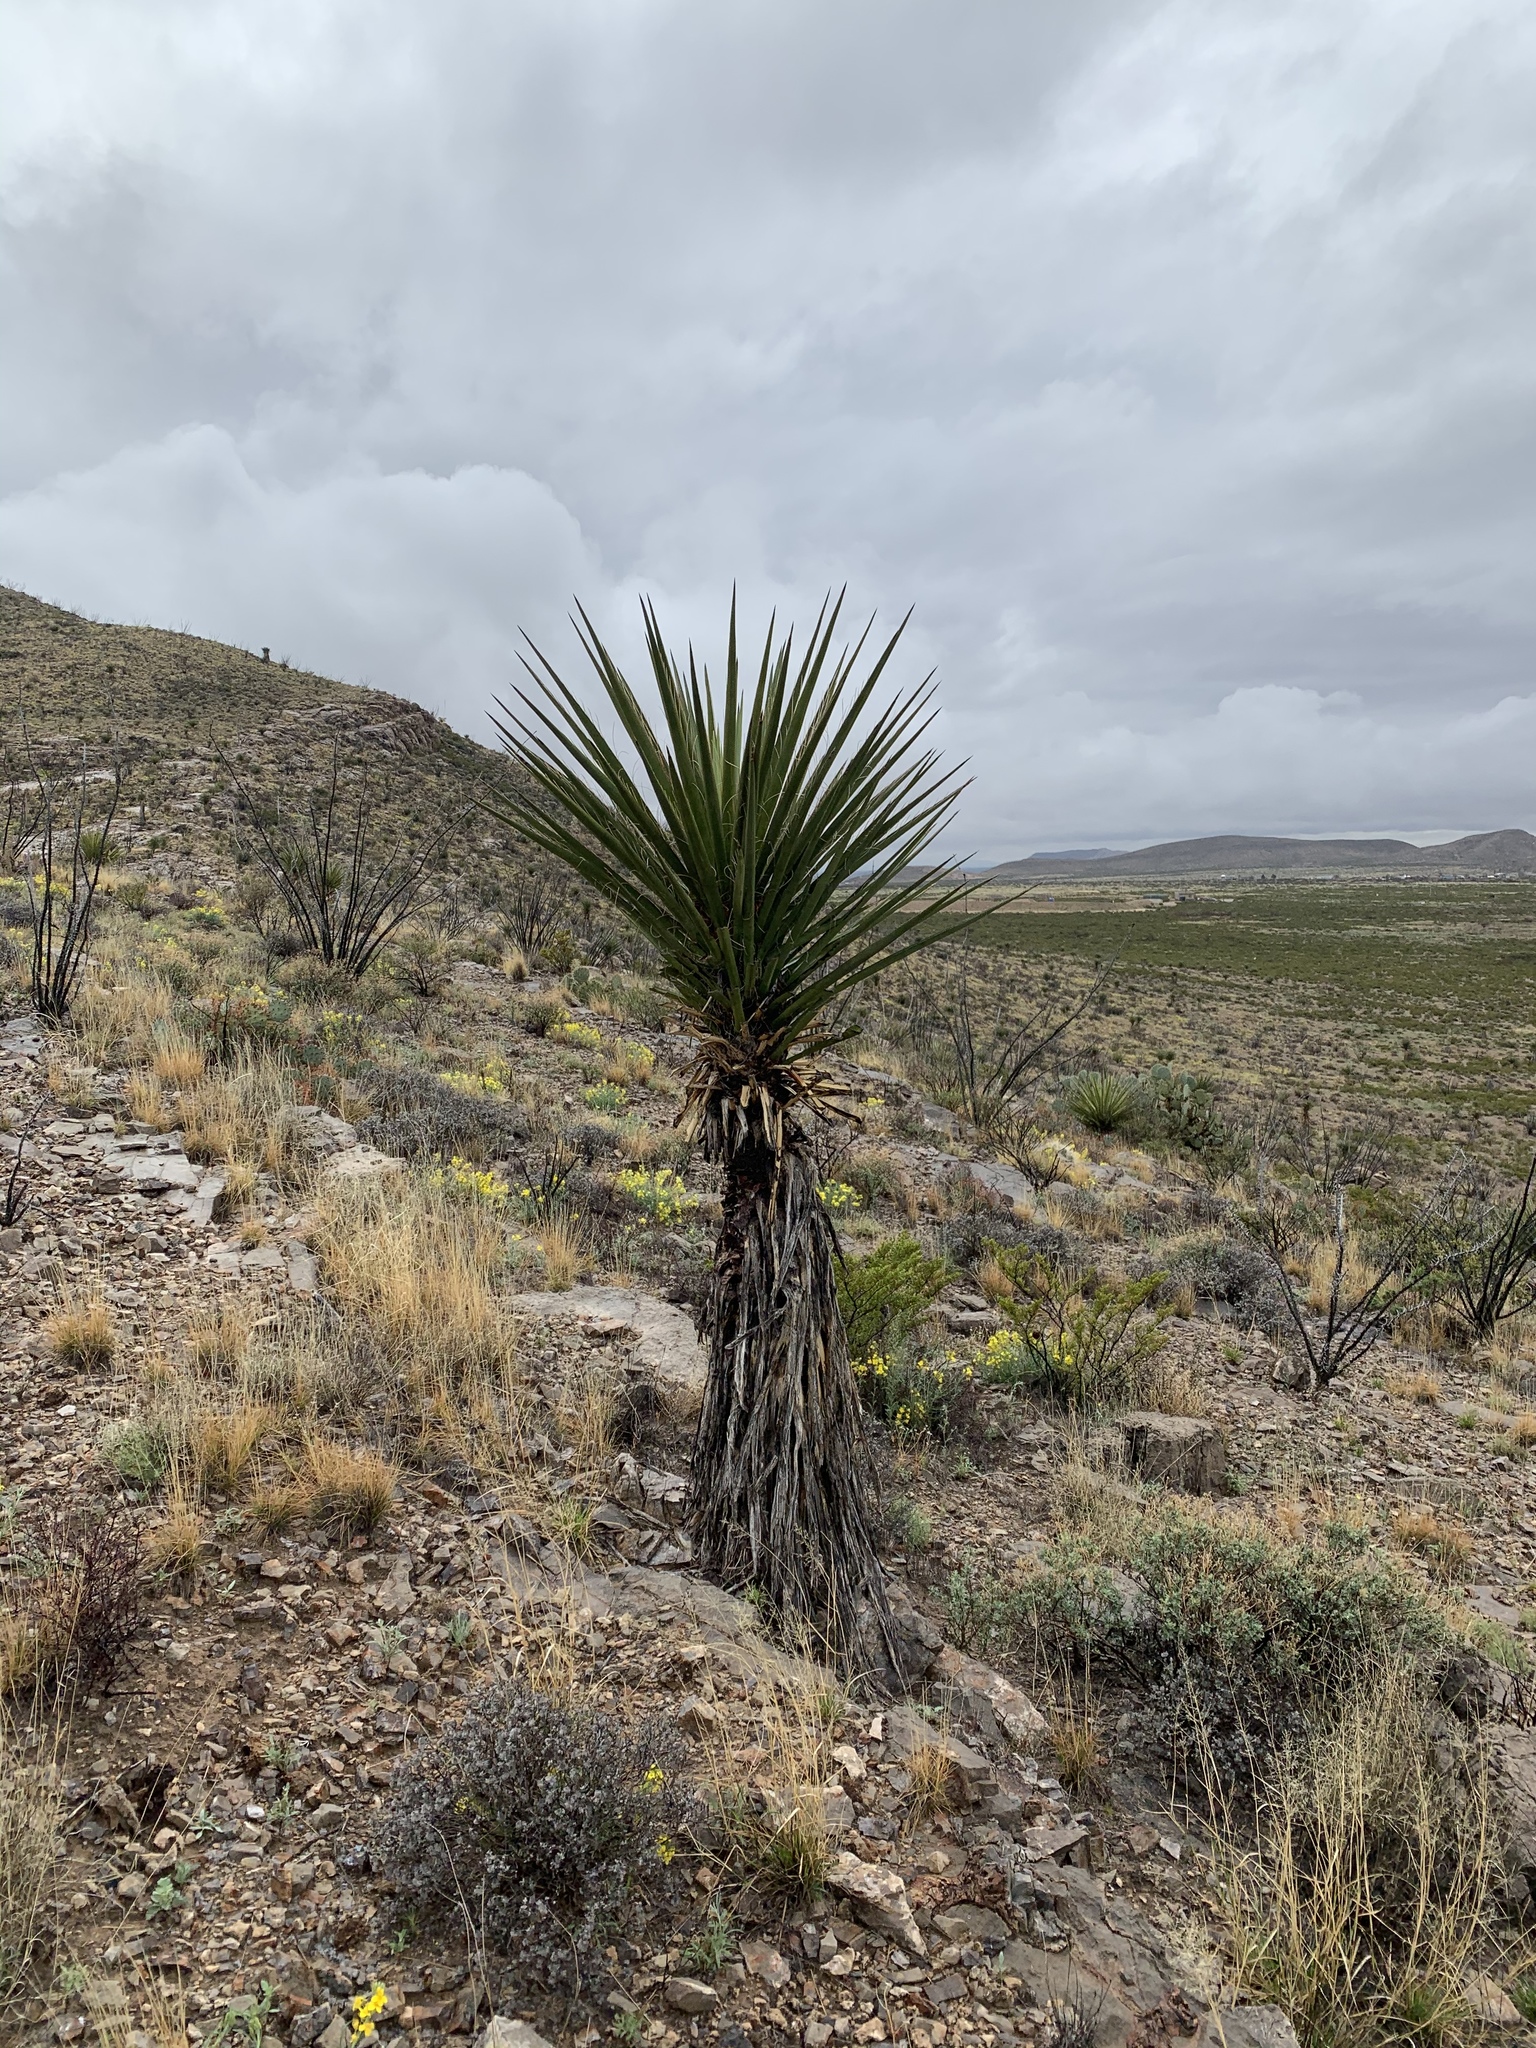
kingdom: Plantae
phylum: Tracheophyta
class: Liliopsida
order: Asparagales
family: Asparagaceae
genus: Yucca
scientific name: Yucca treculiana
